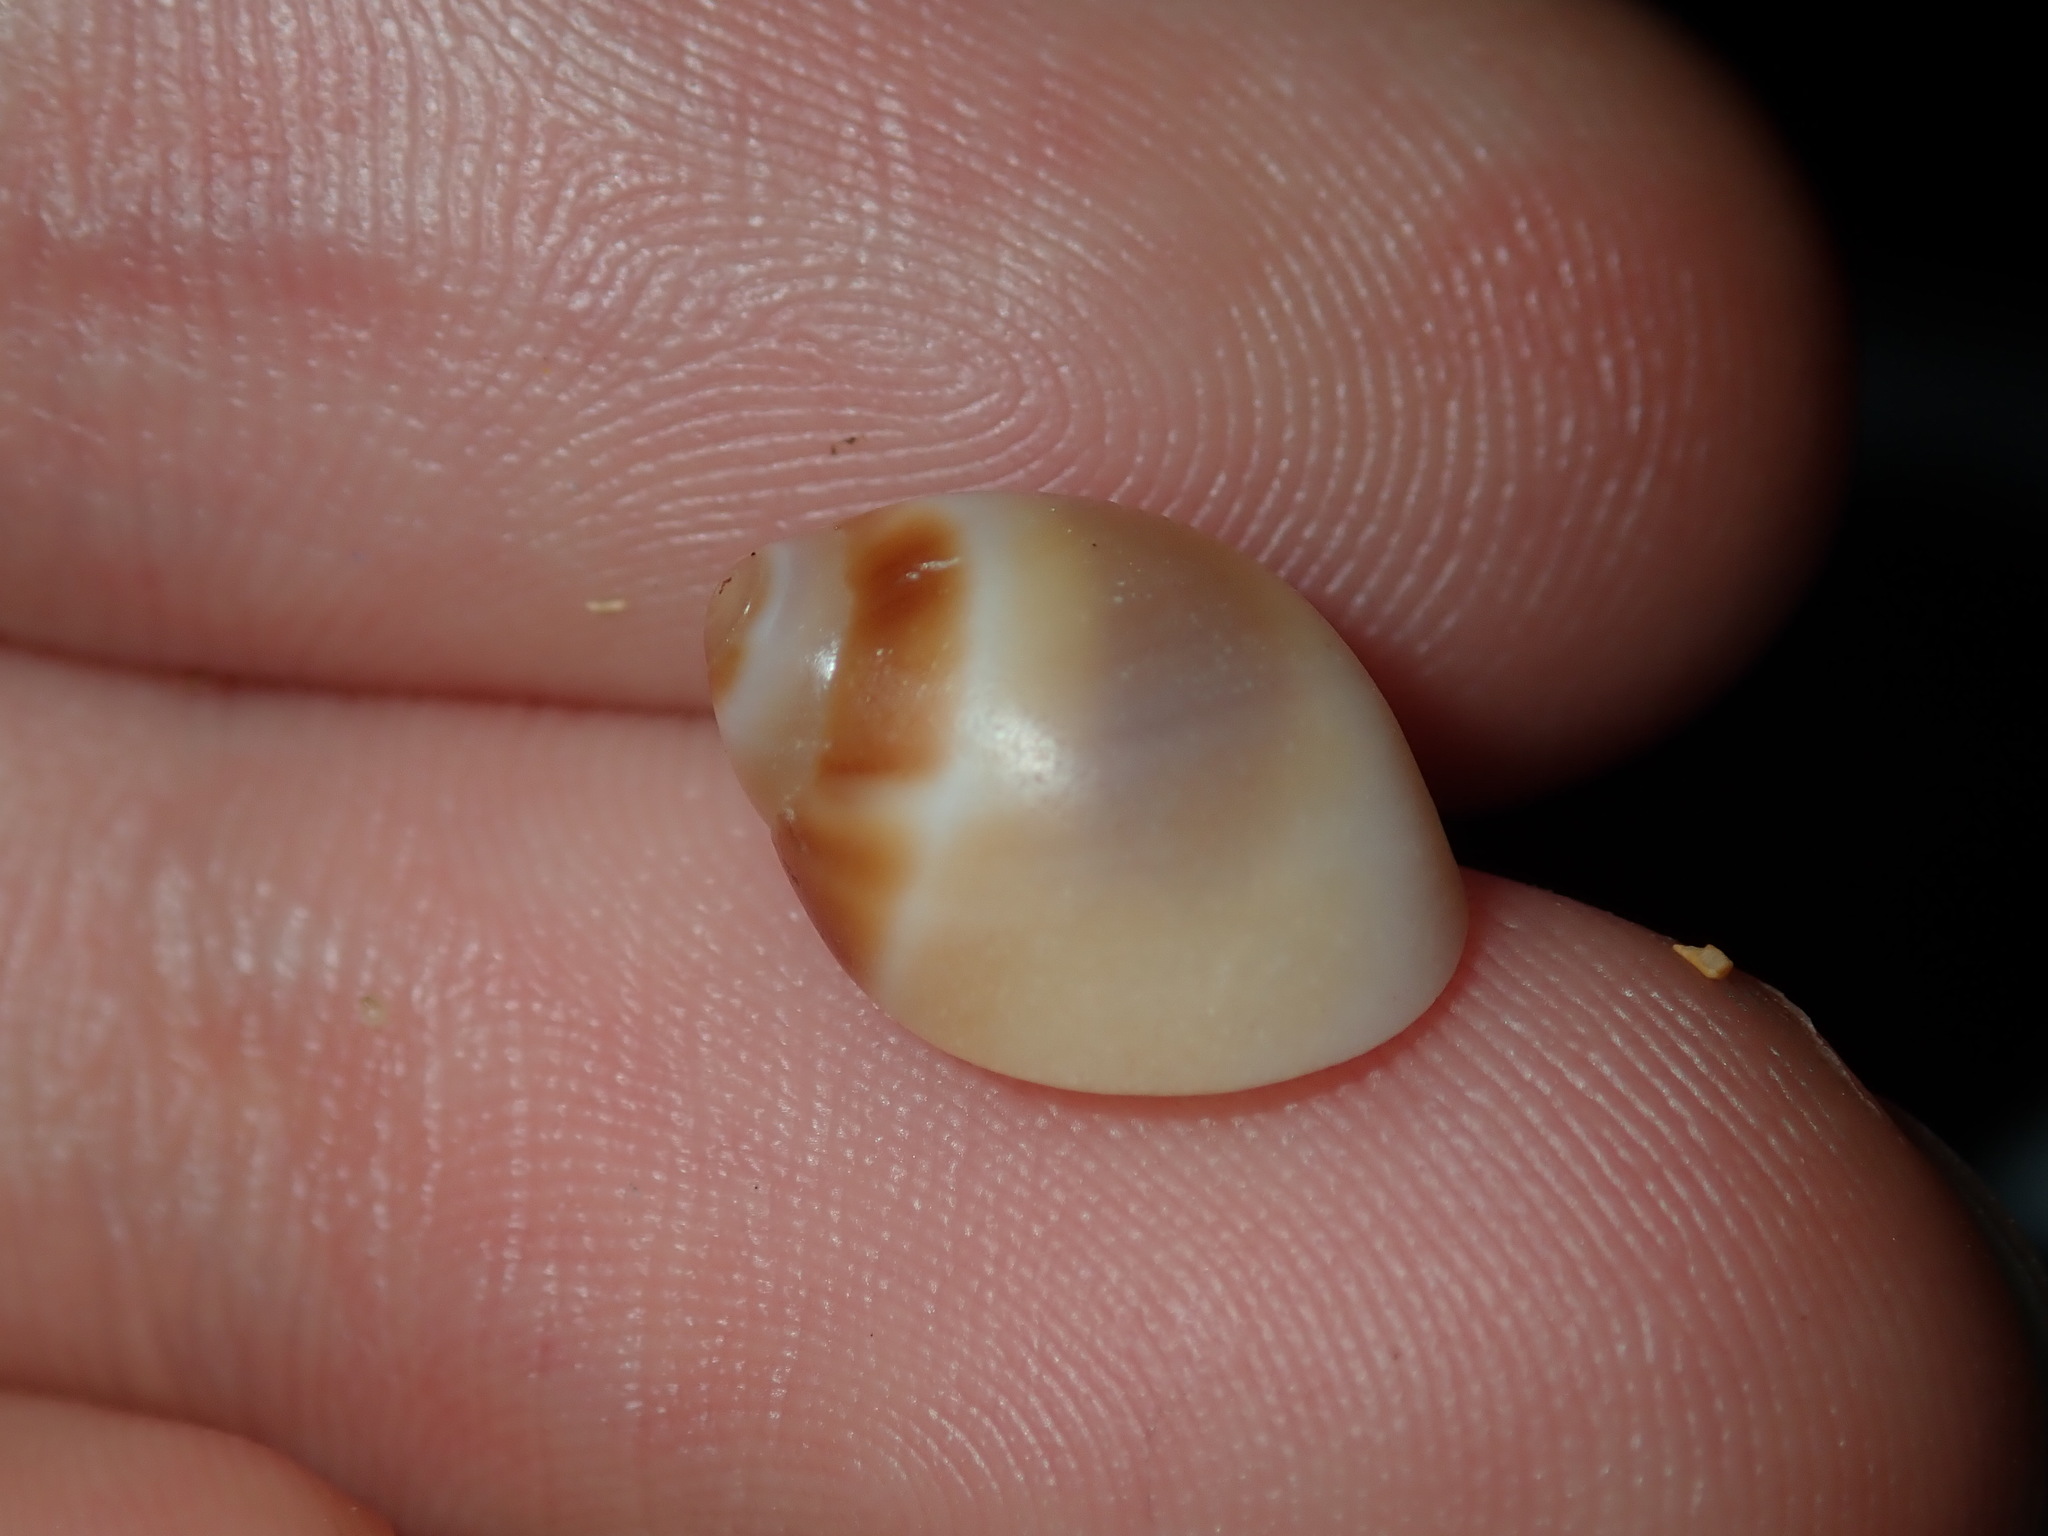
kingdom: Animalia
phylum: Mollusca
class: Gastropoda
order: Littorinimorpha
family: Naticidae
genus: Conuber
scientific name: Conuber conicum
